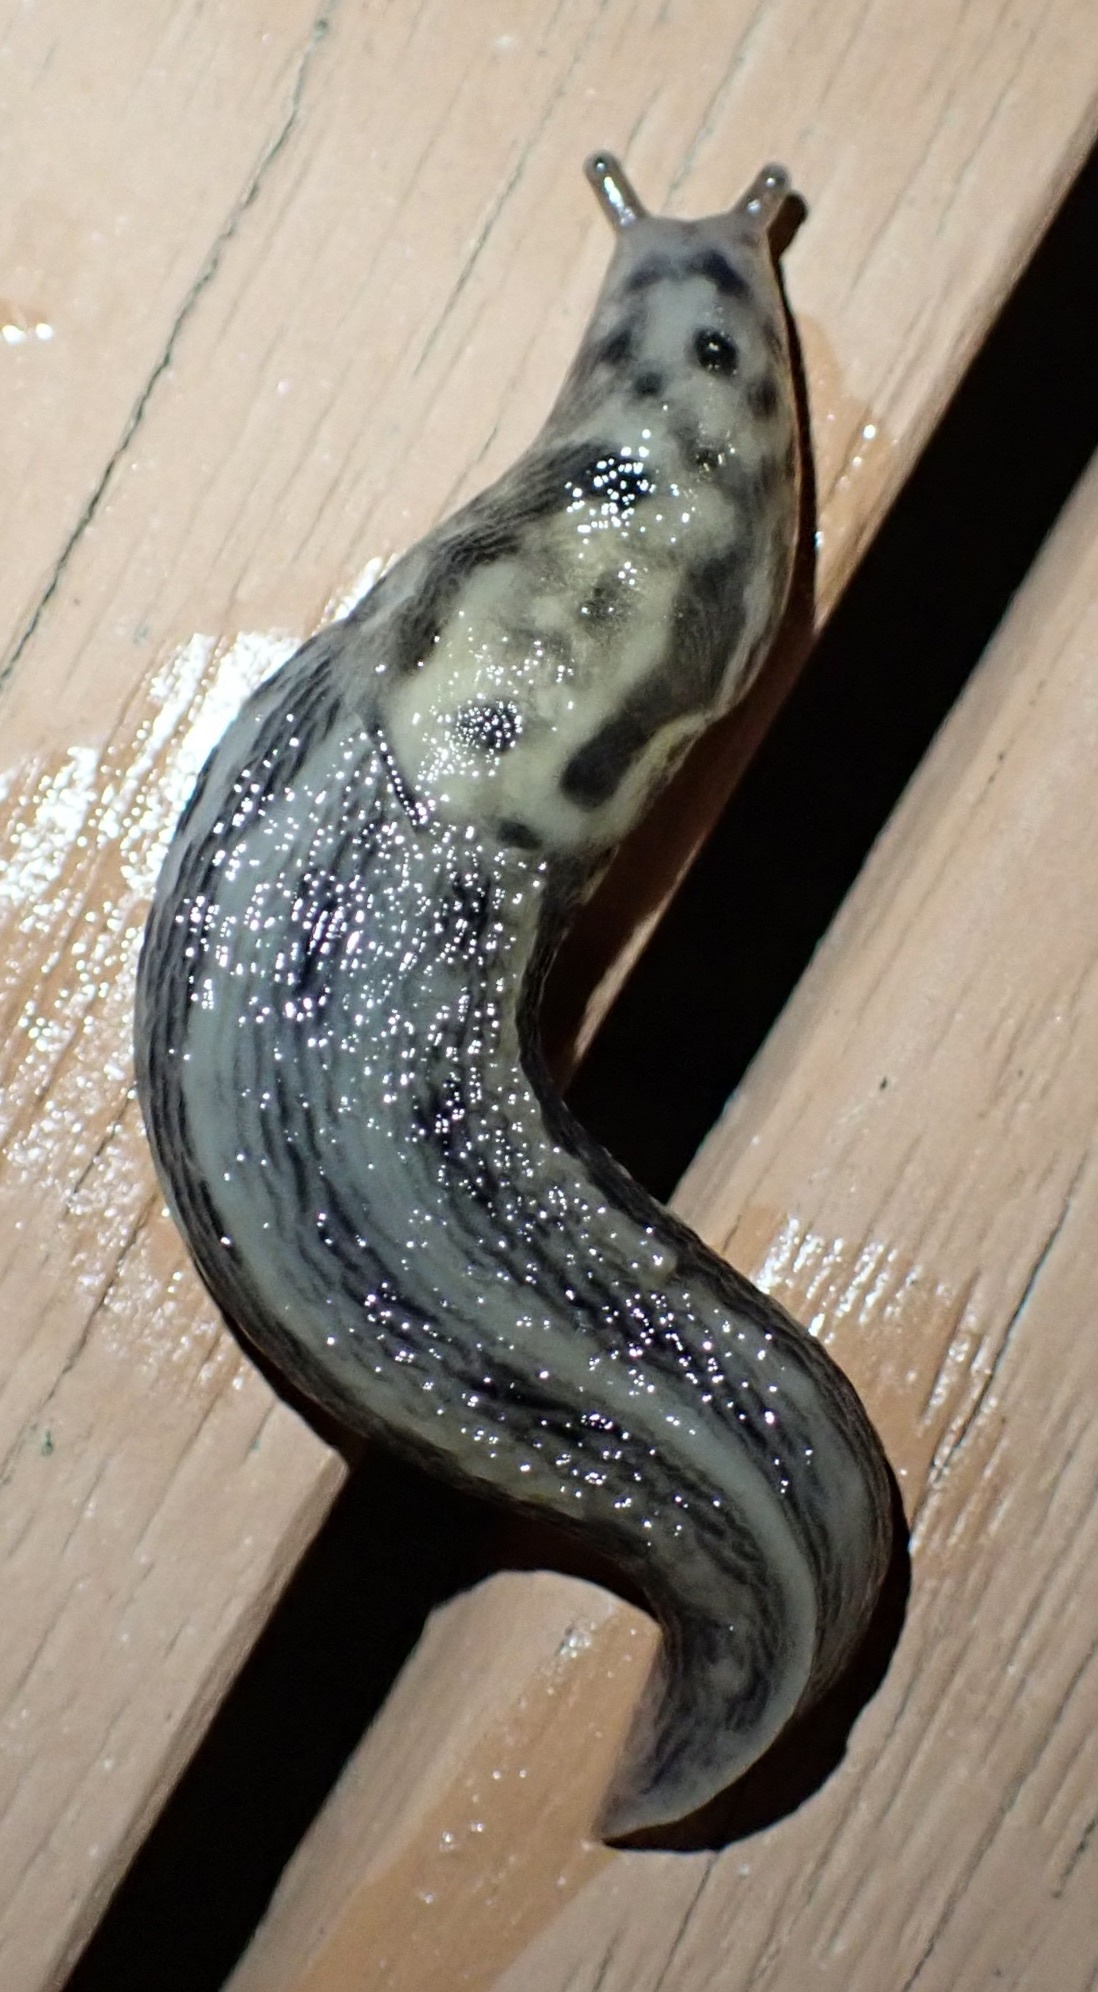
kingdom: Animalia
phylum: Mollusca
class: Gastropoda
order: Stylommatophora
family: Limacidae
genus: Limax
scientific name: Limax maximus
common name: Great grey slug
